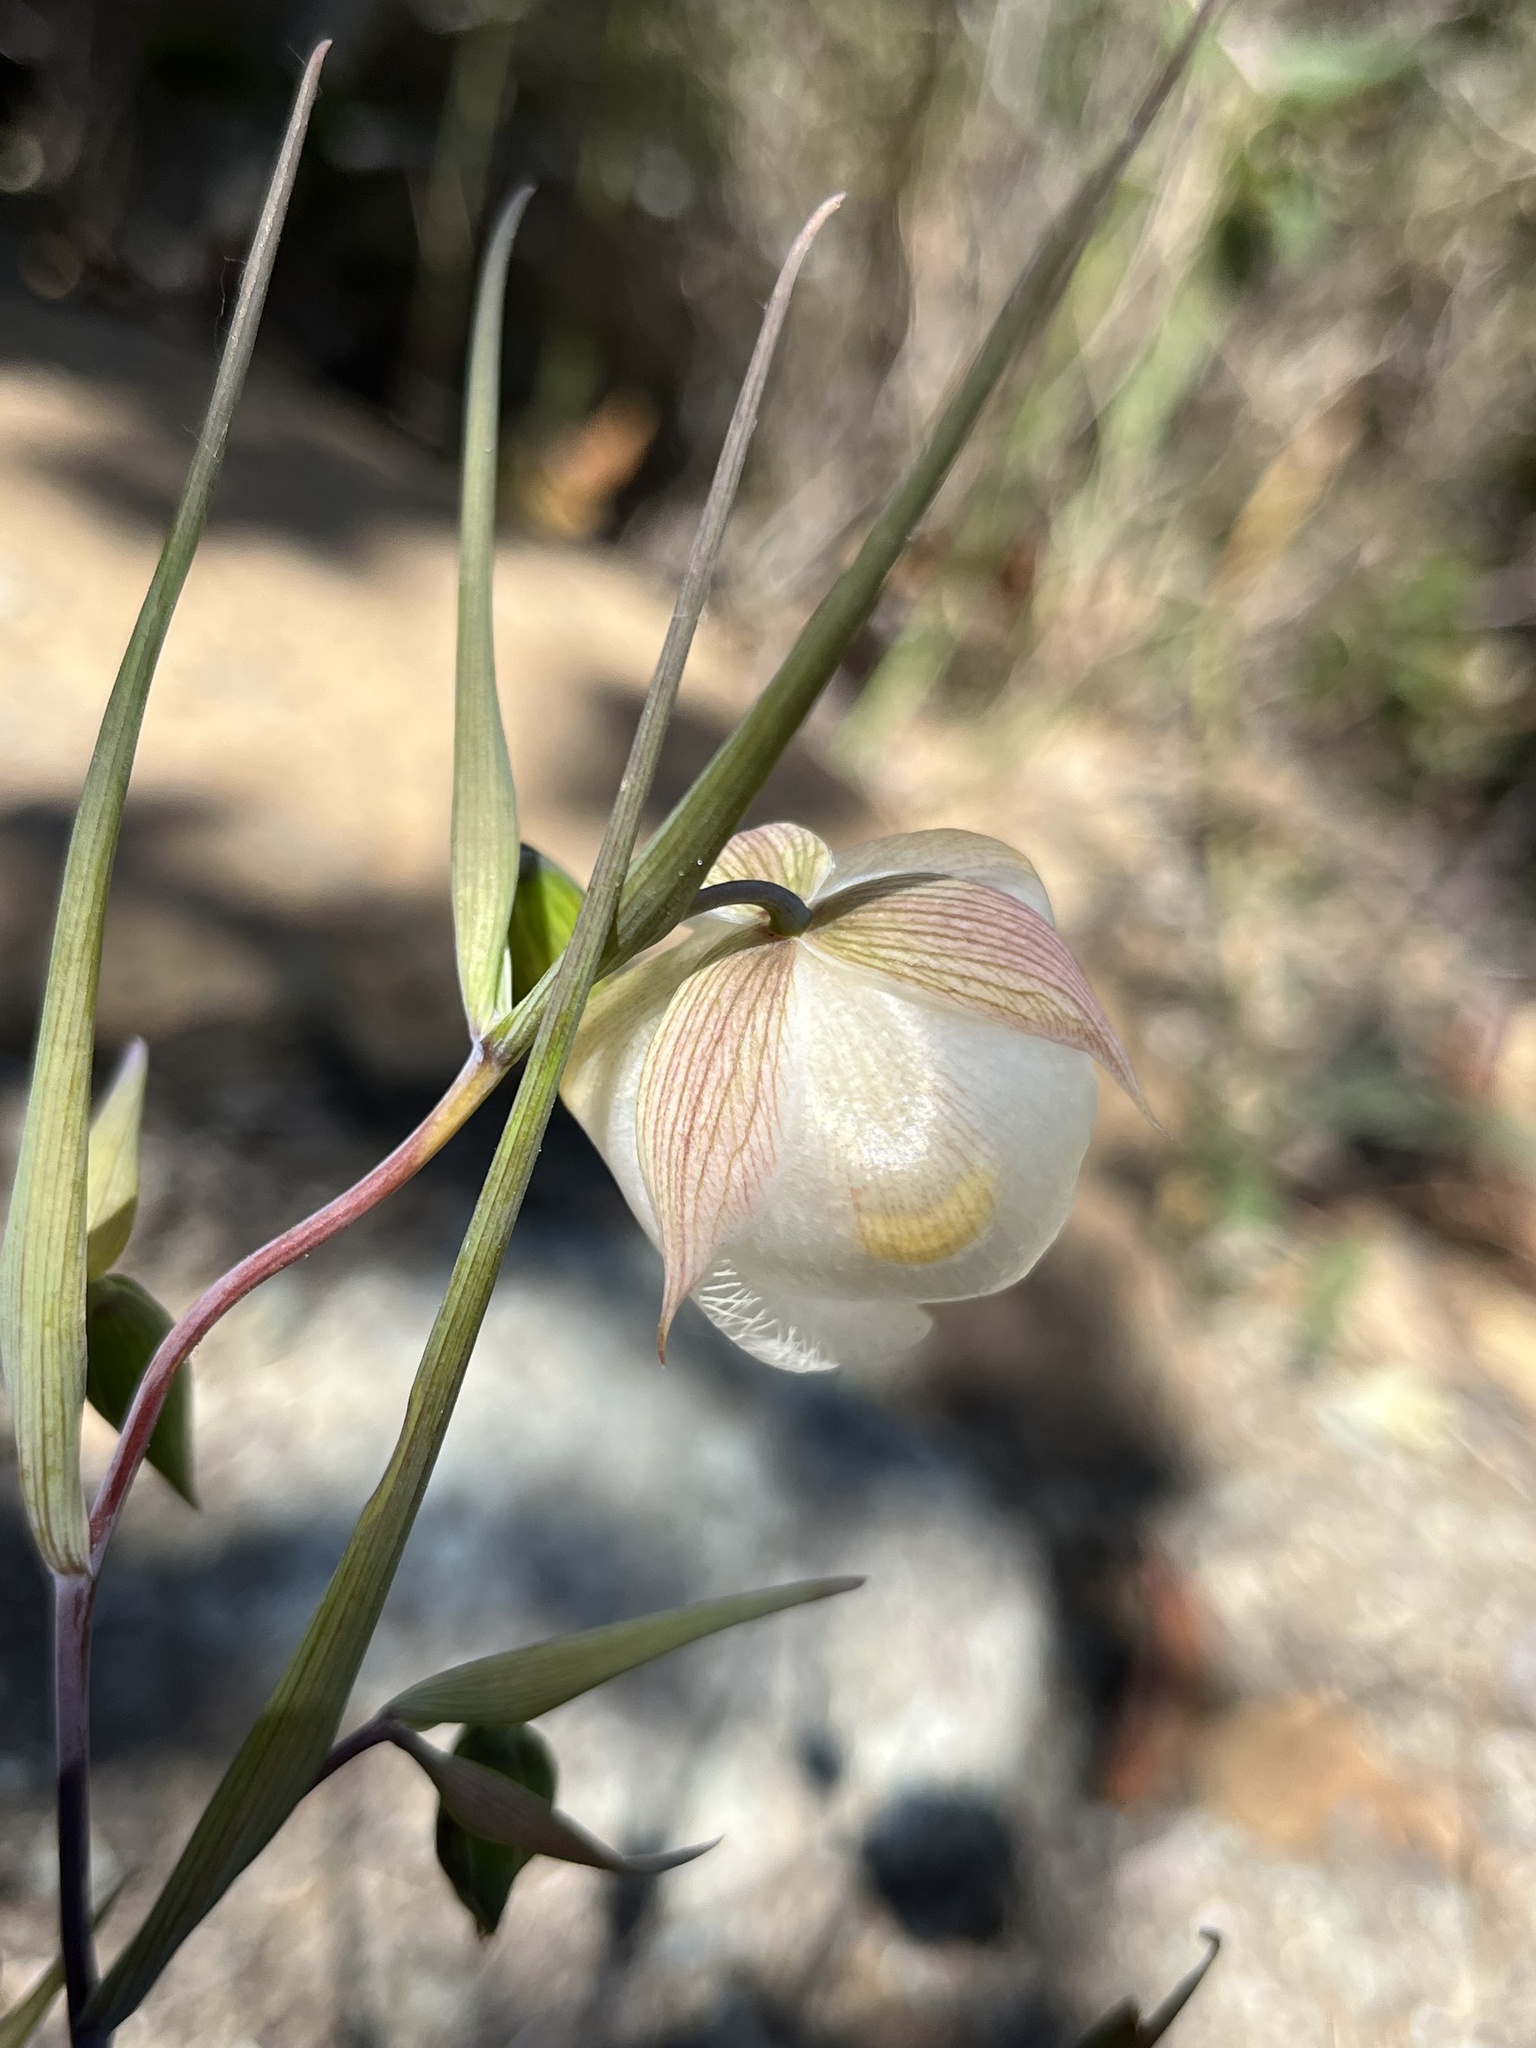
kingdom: Plantae
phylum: Tracheophyta
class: Liliopsida
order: Liliales
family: Liliaceae
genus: Calochortus
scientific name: Calochortus albus
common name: Fairy-lantern
